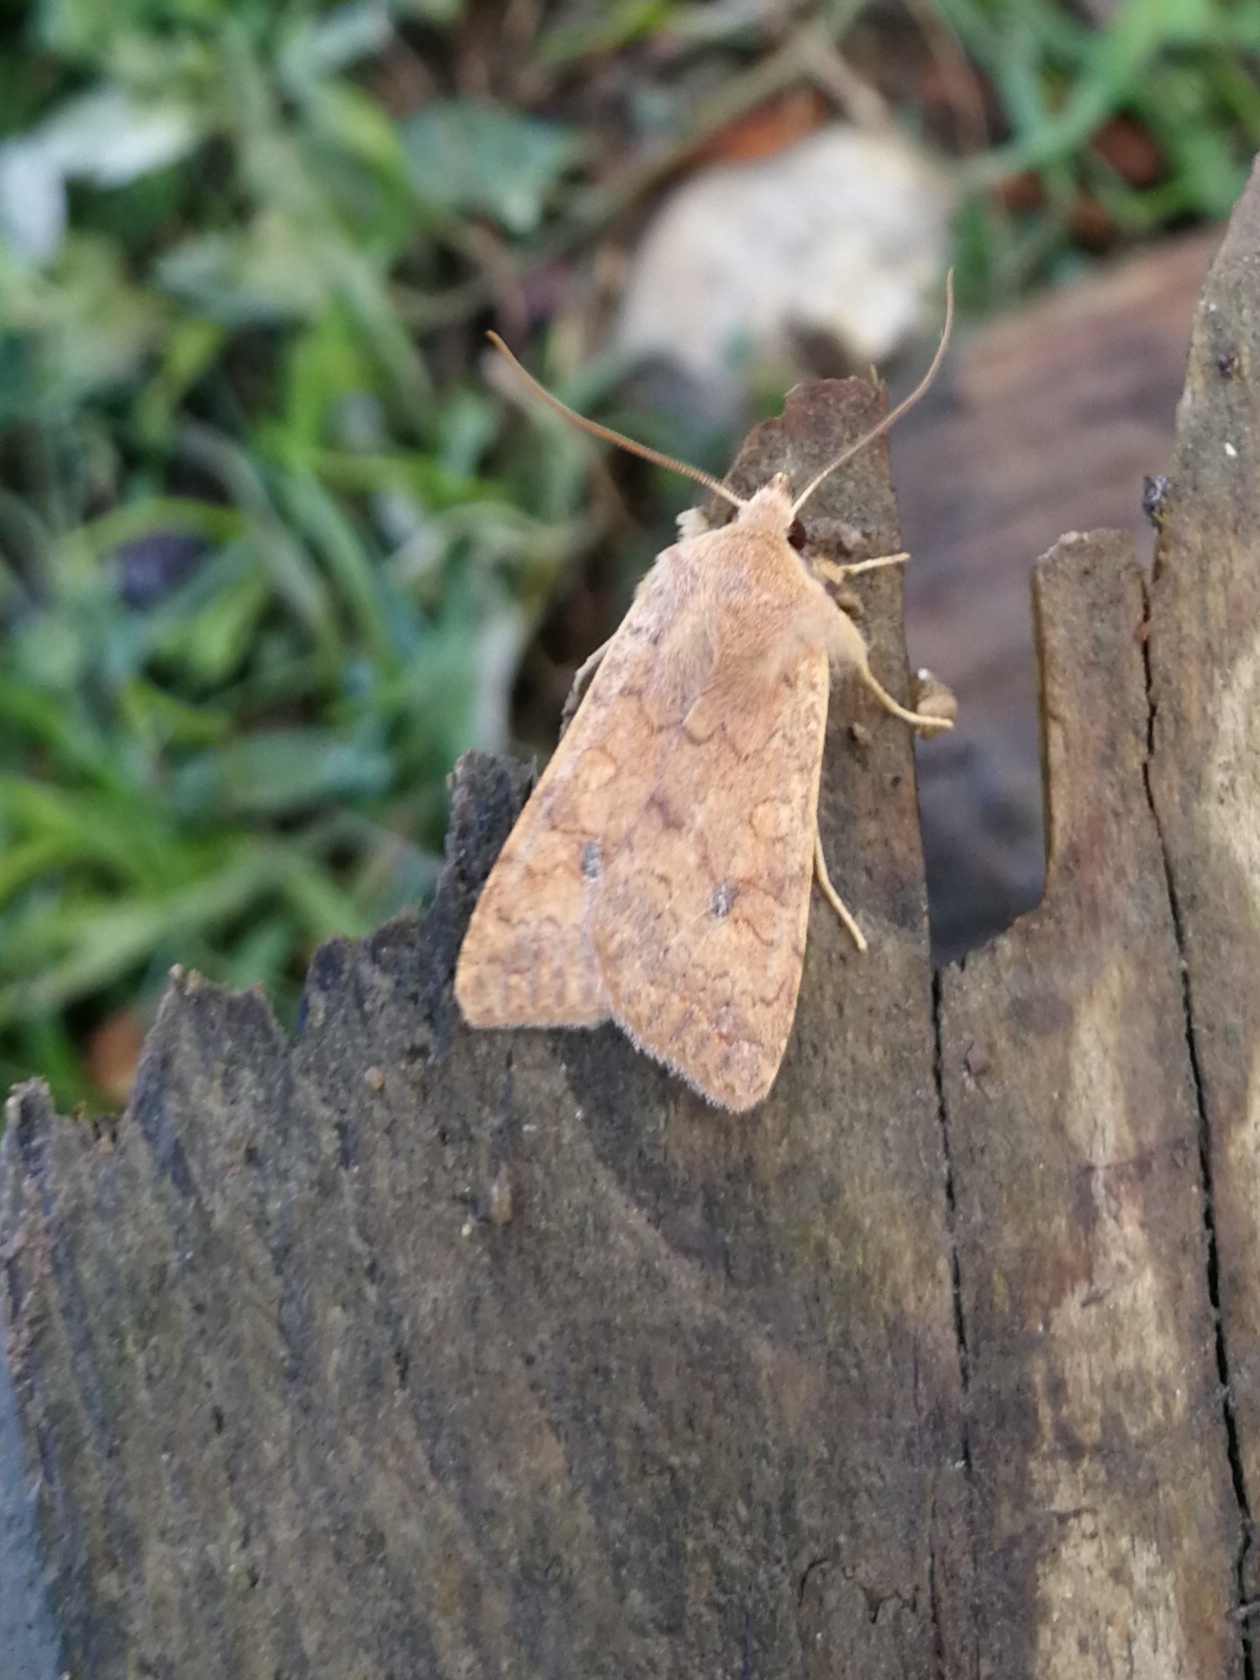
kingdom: Animalia
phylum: Arthropoda
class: Insecta
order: Lepidoptera
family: Noctuidae
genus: Sunira
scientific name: Sunira circellaris
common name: Brick
